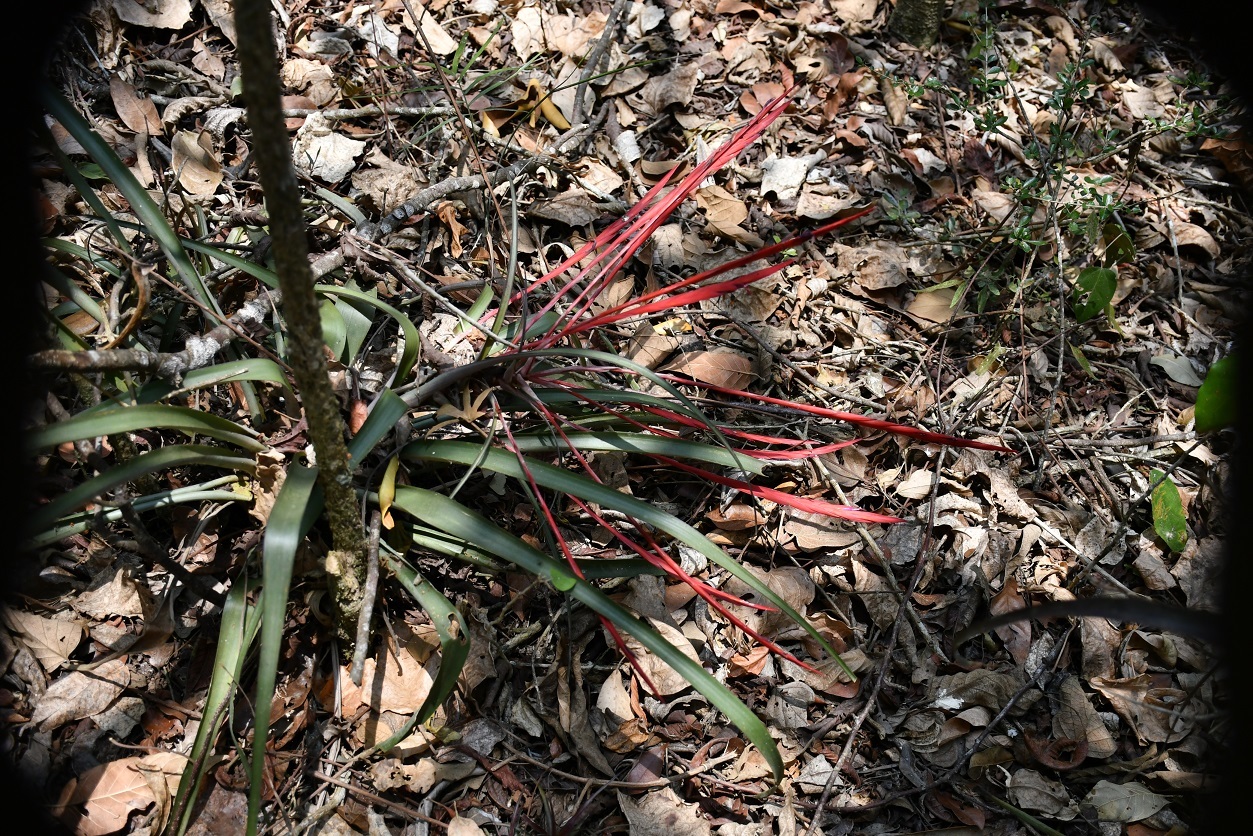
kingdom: Plantae
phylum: Tracheophyta
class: Liliopsida
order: Poales
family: Bromeliaceae
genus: Tillandsia
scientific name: Tillandsia flabellata
